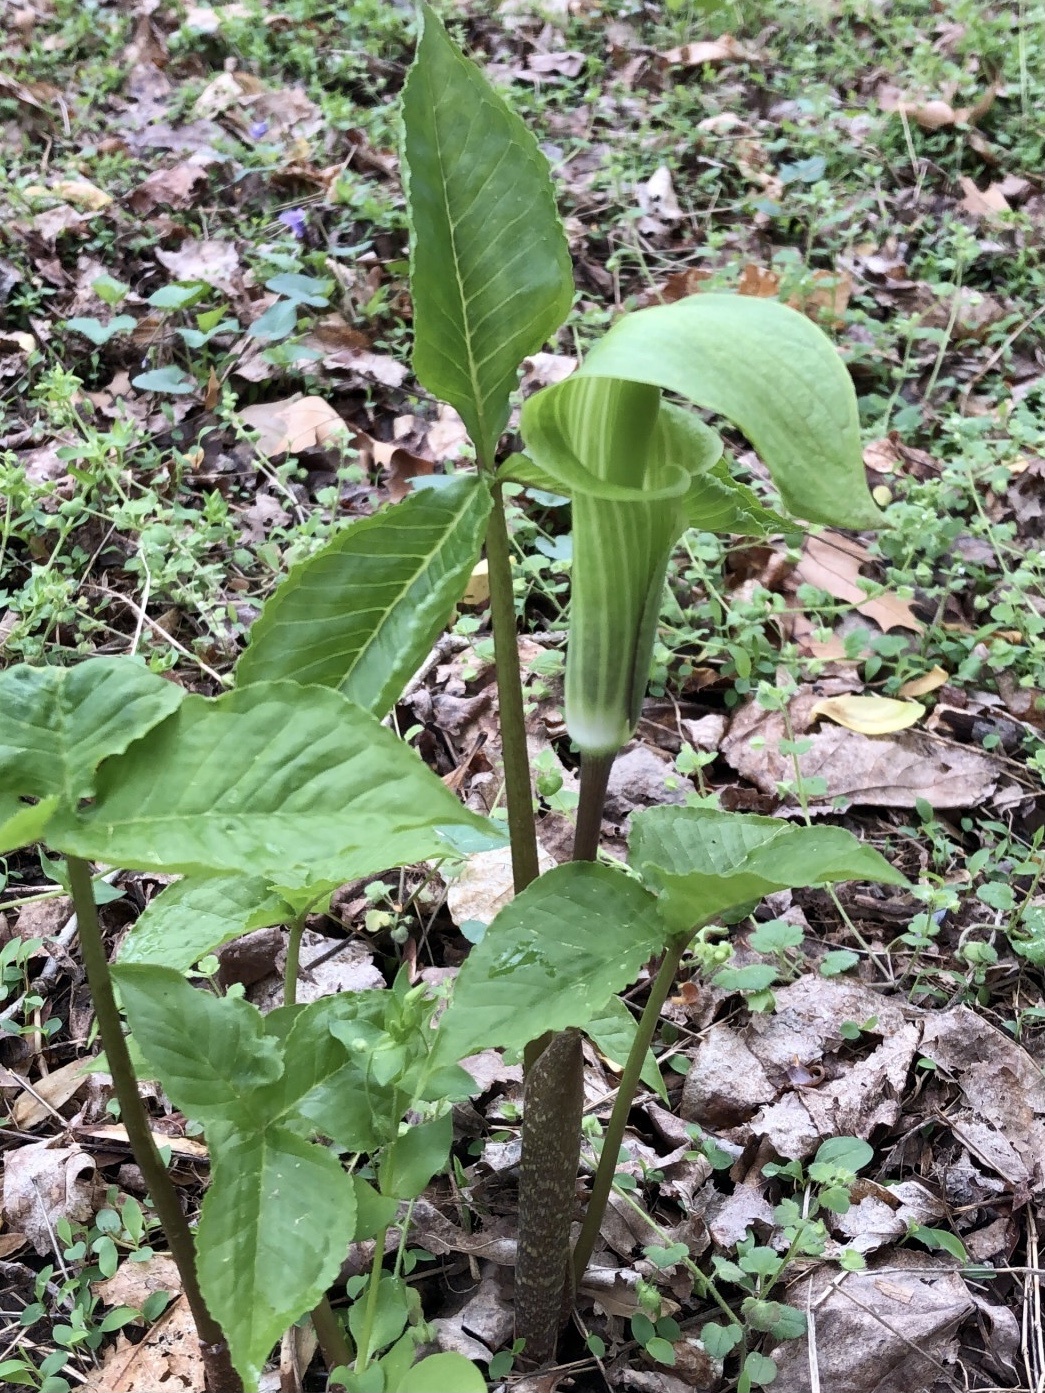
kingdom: Plantae
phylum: Tracheophyta
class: Liliopsida
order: Alismatales
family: Araceae
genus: Arisaema
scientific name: Arisaema triphyllum
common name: Jack-in-the-pulpit
